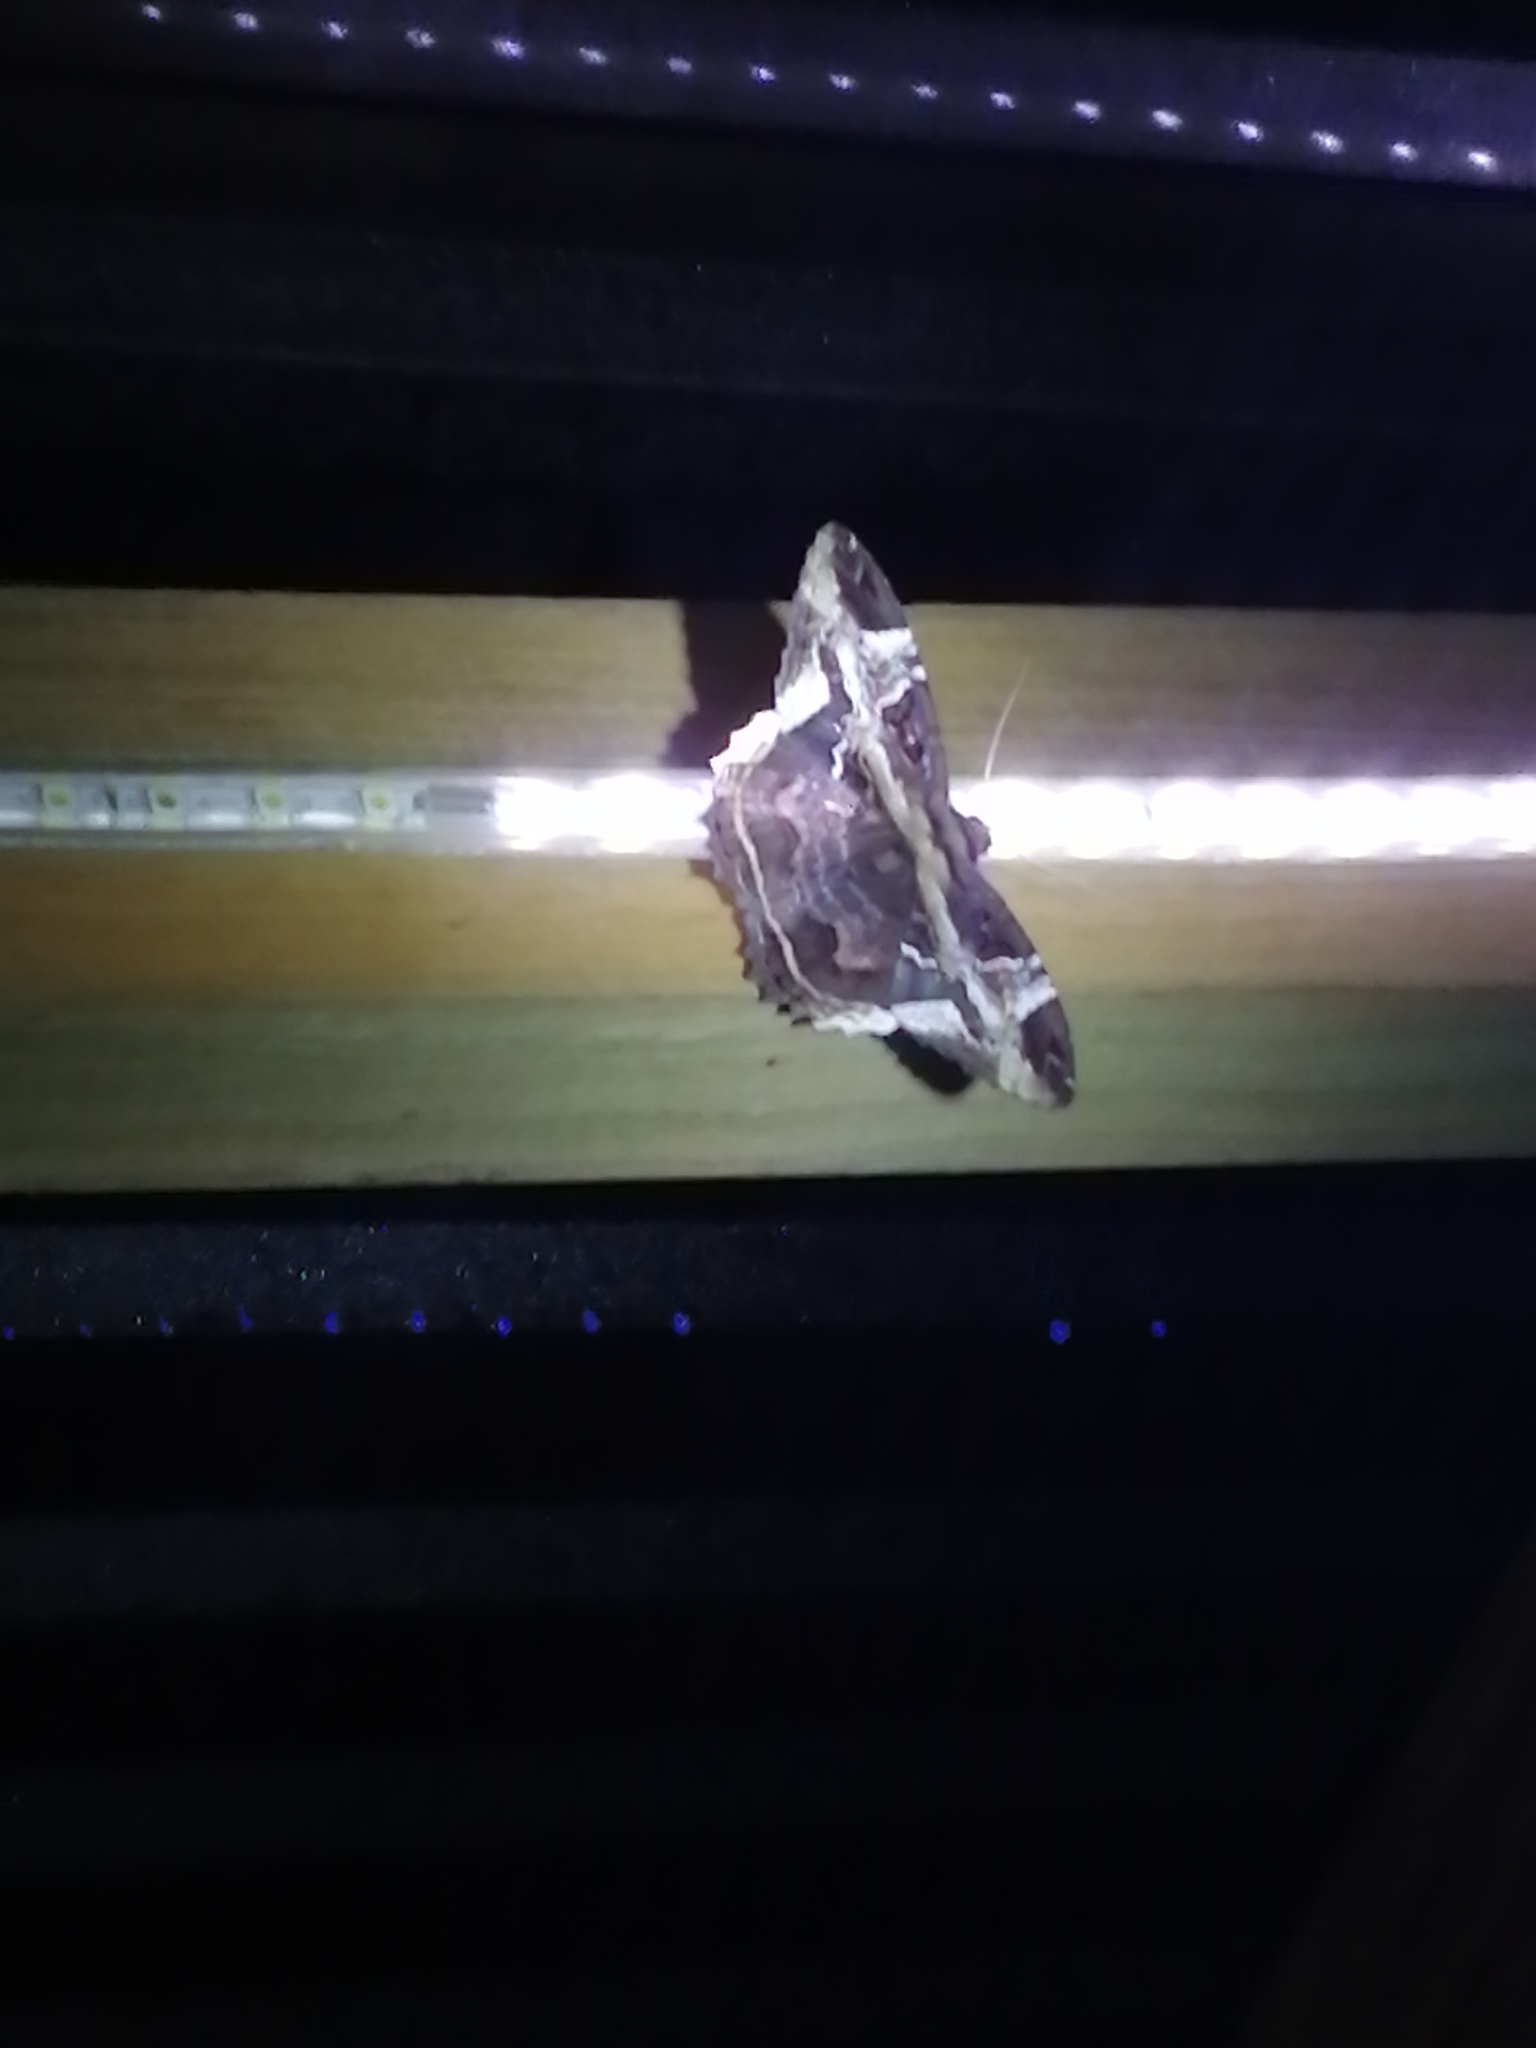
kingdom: Animalia
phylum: Arthropoda
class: Insecta
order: Lepidoptera
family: Erebidae
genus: Feigeria
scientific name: Feigeria herilia
